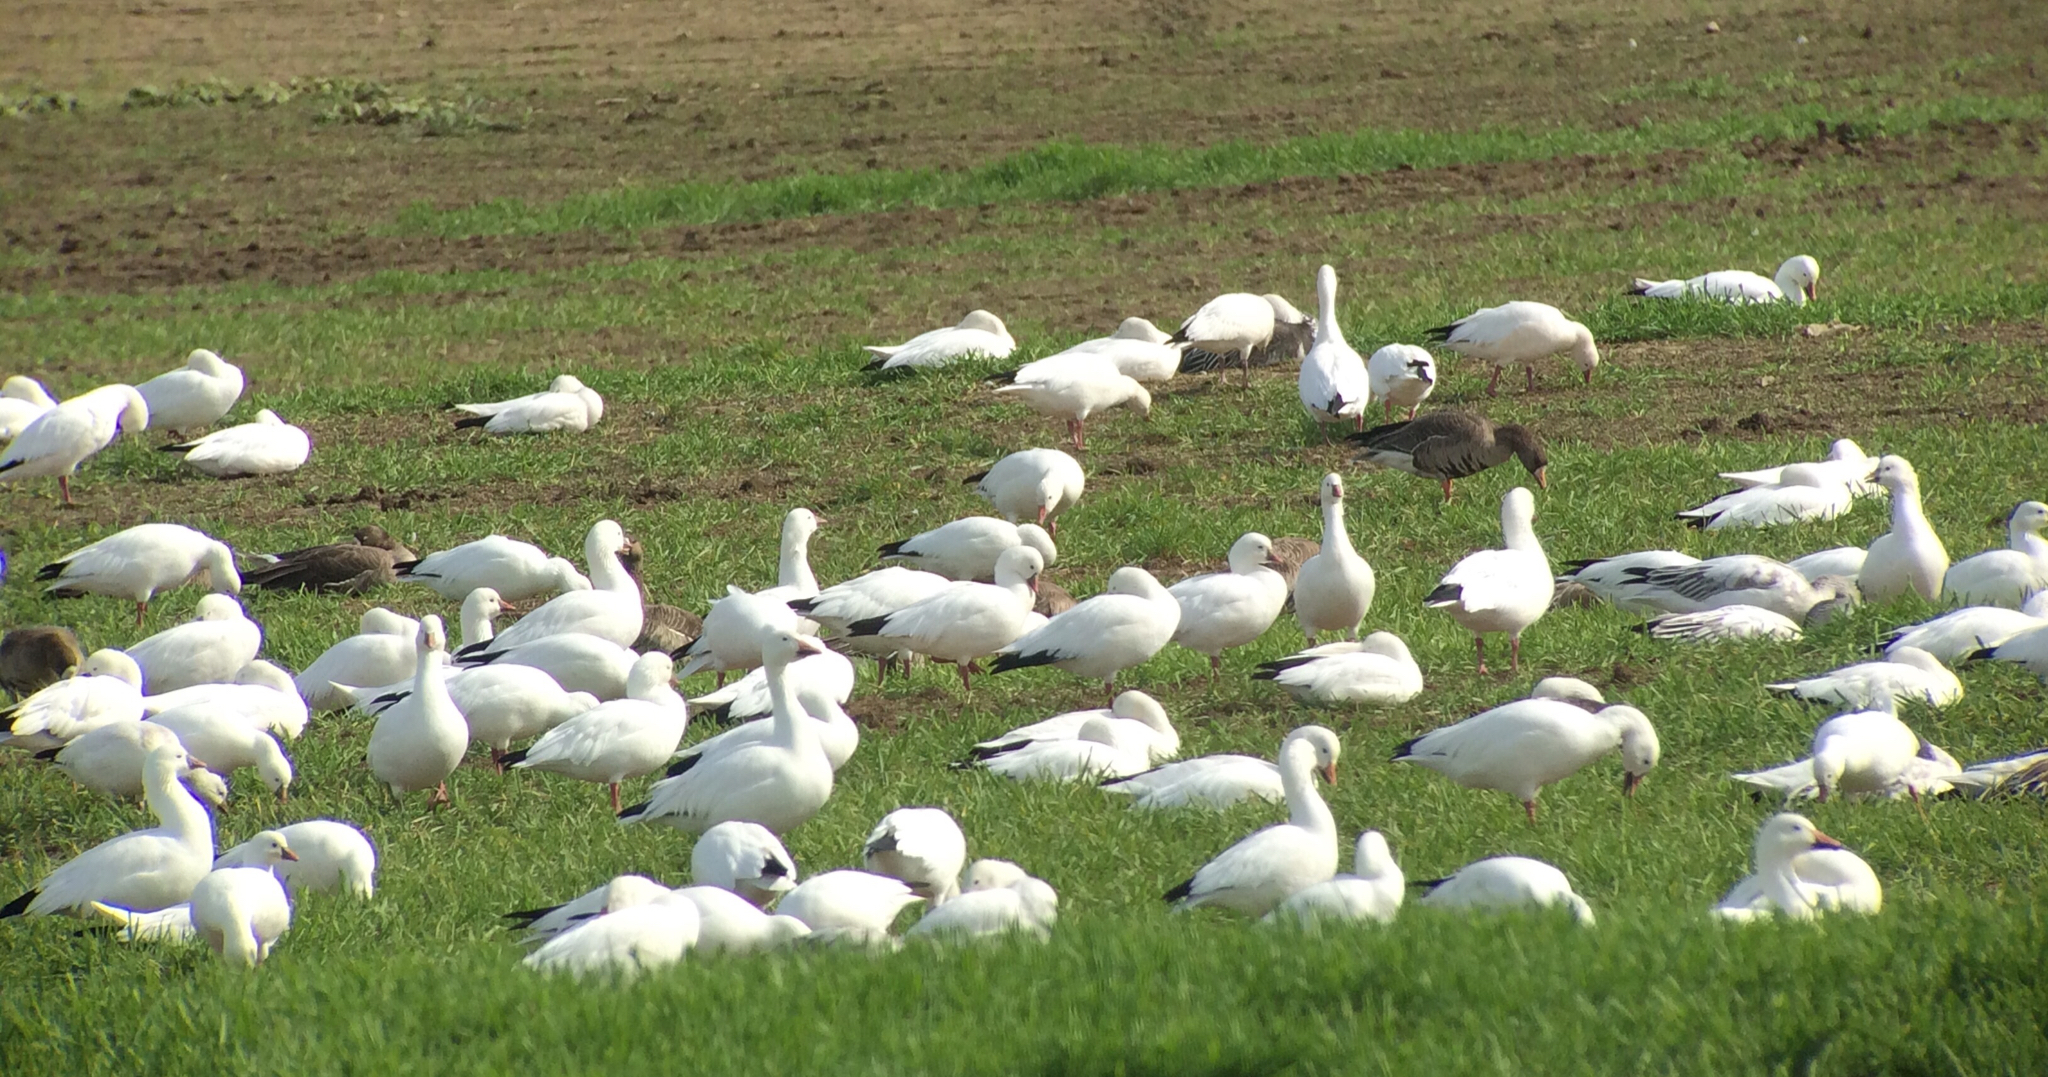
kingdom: Animalia
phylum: Chordata
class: Aves
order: Anseriformes
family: Anatidae
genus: Anser
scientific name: Anser caerulescens
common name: Snow goose
